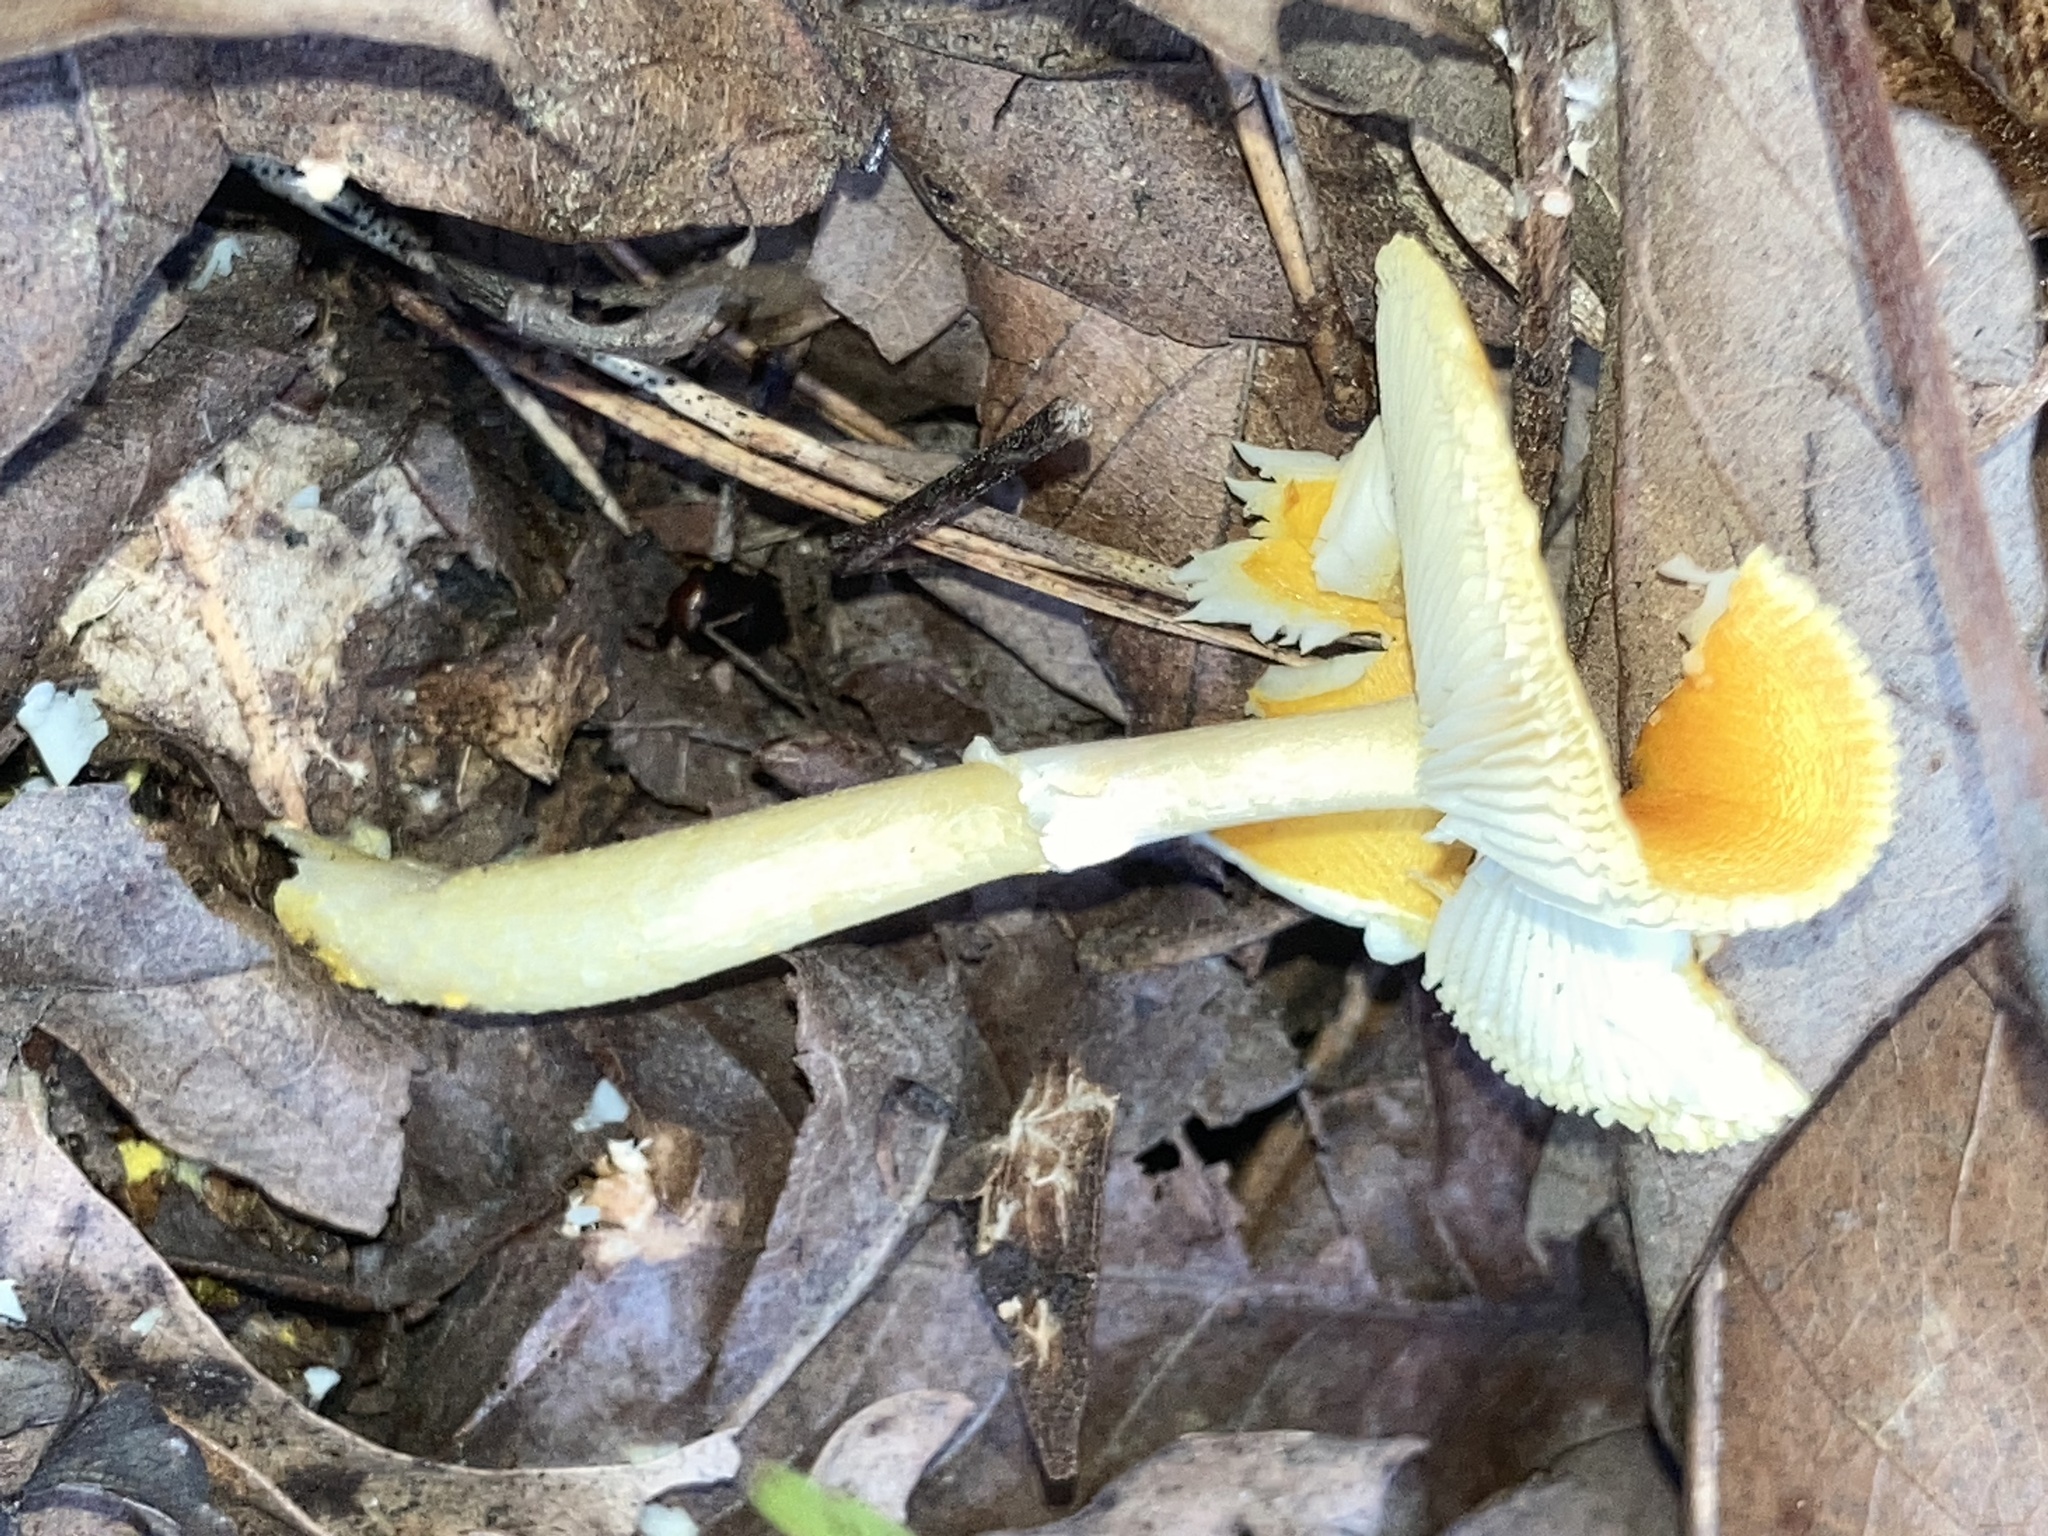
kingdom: Fungi
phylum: Basidiomycota
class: Agaricomycetes
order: Agaricales
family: Amanitaceae
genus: Amanita
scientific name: Amanita flavoconia
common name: Yellow patches
